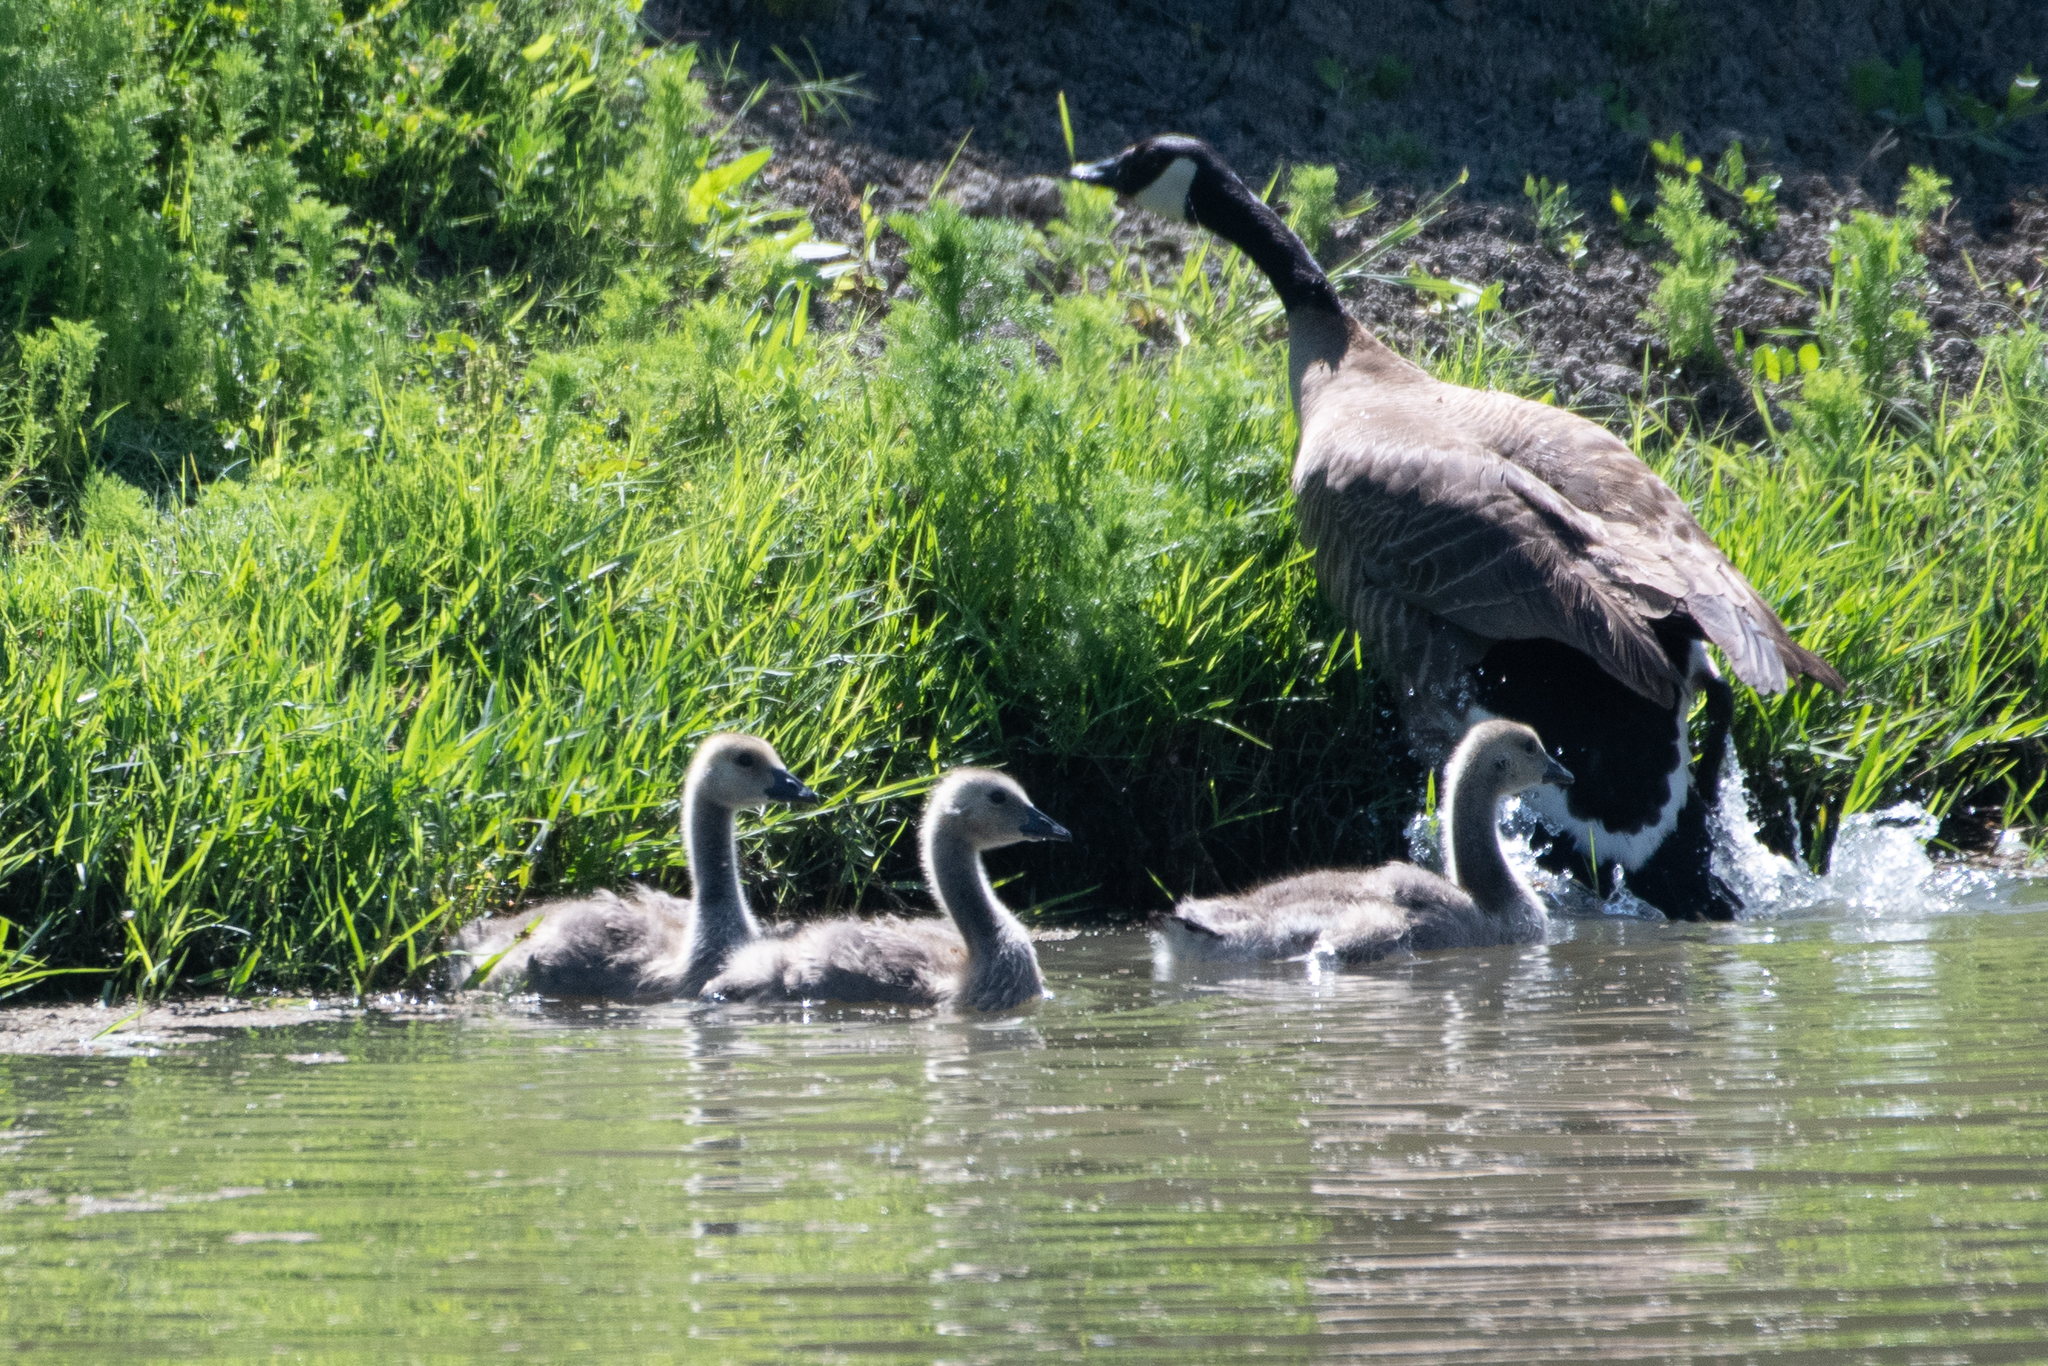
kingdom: Animalia
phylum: Chordata
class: Aves
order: Anseriformes
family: Anatidae
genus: Branta
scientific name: Branta canadensis
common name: Canada goose
